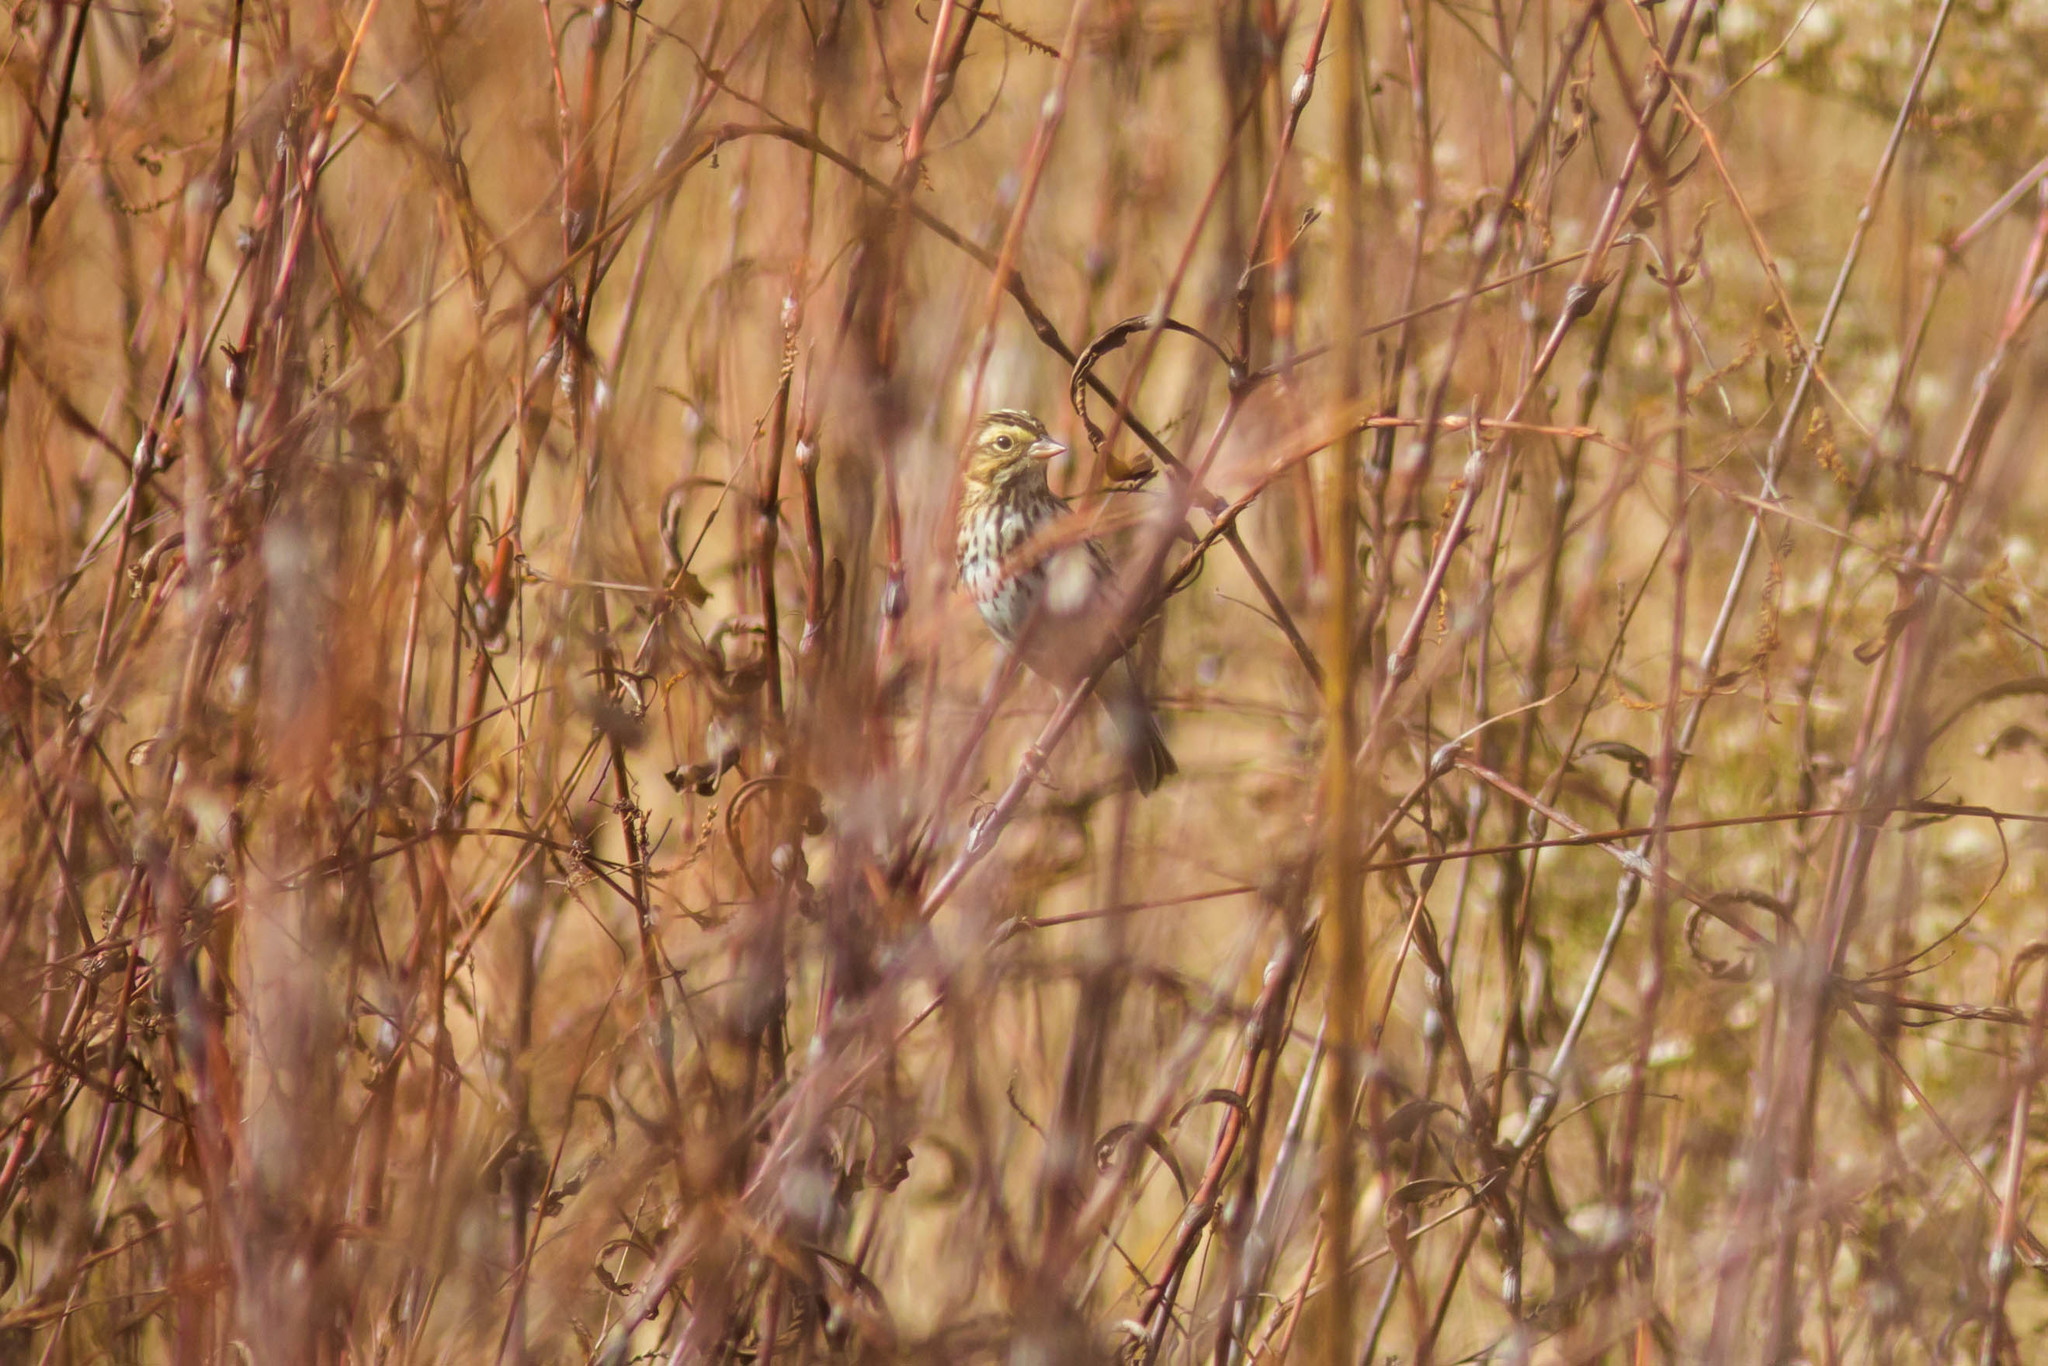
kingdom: Animalia
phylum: Chordata
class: Aves
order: Passeriformes
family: Passerellidae
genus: Passerculus
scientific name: Passerculus sandwichensis
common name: Savannah sparrow
